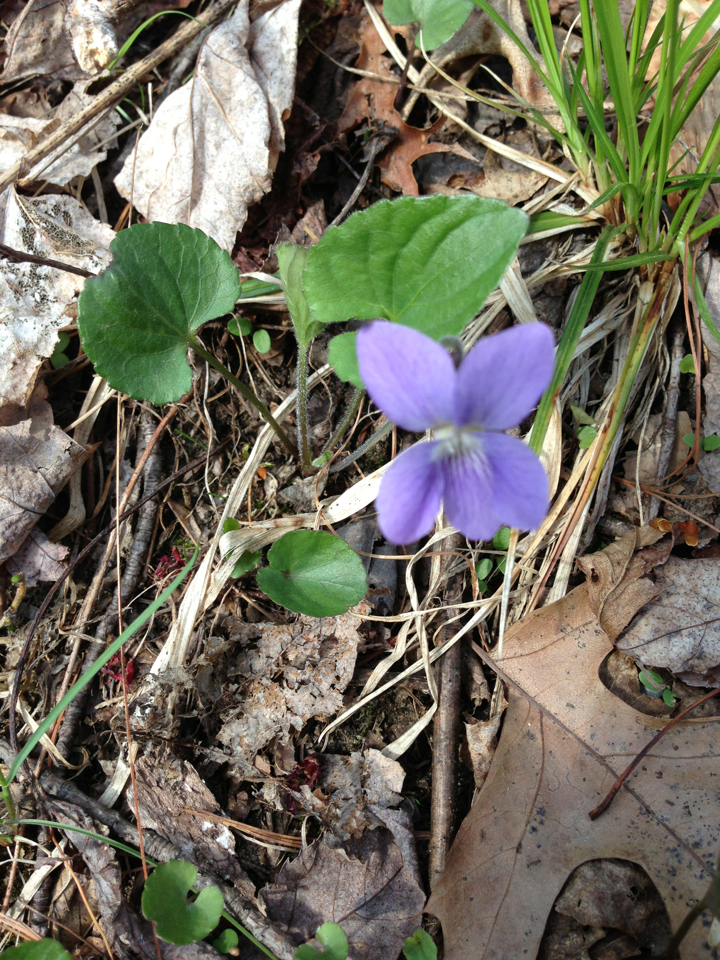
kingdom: Plantae
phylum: Tracheophyta
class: Magnoliopsida
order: Malpighiales
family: Violaceae
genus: Viola
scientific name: Viola septentrionalis
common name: Northern woodland violet
